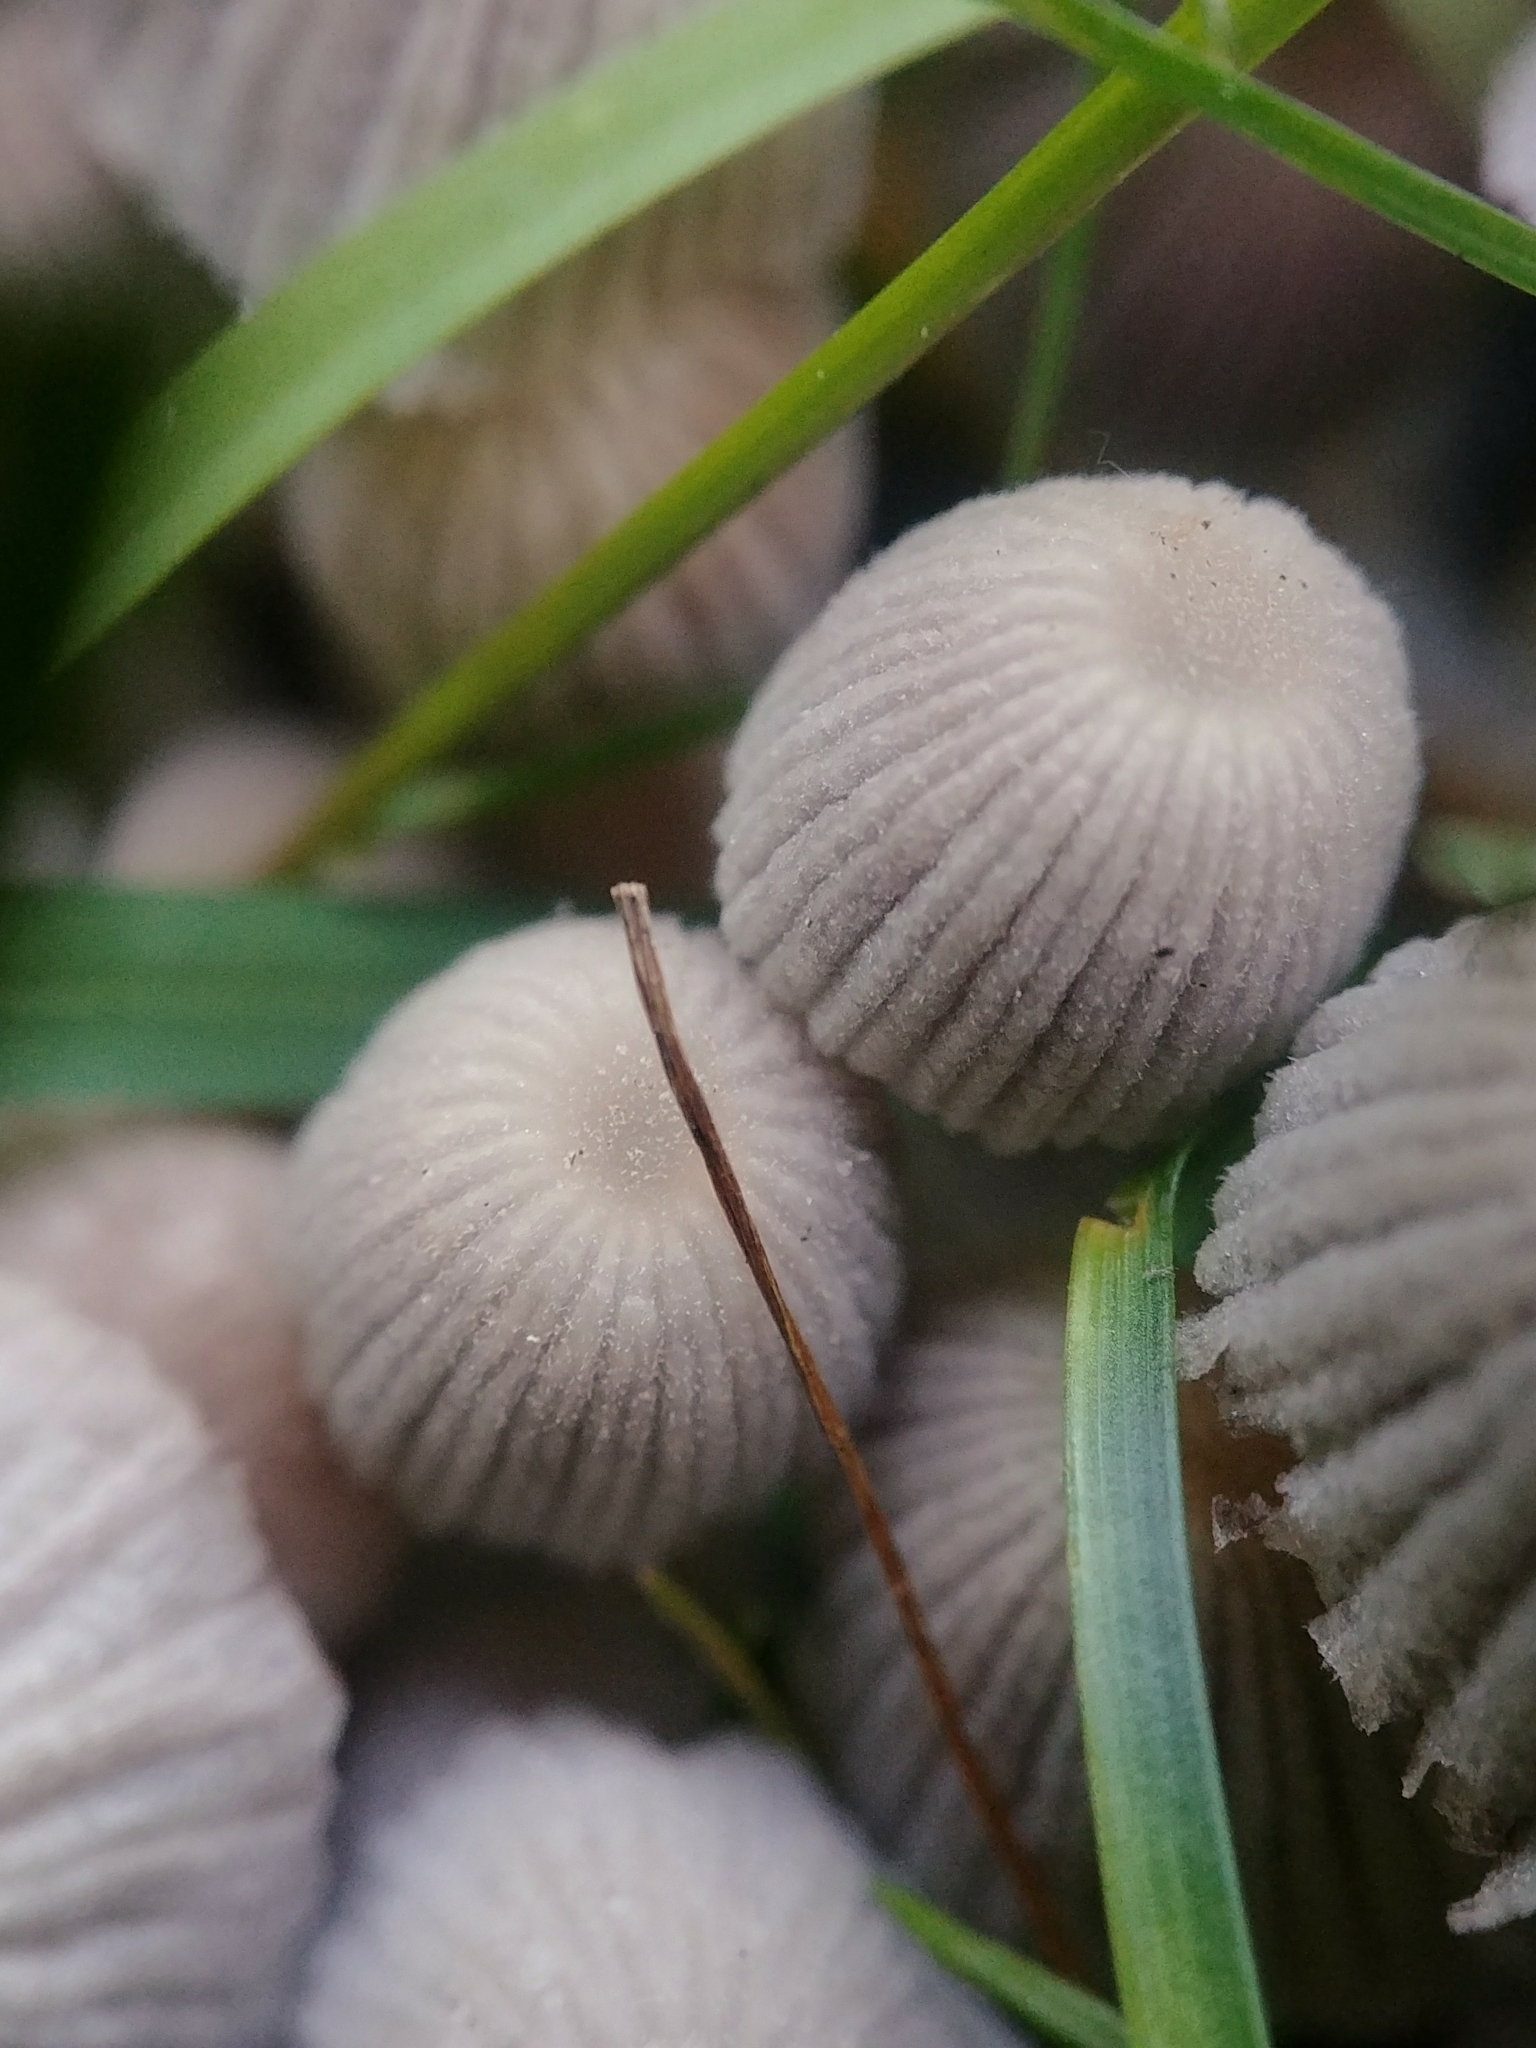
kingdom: Fungi
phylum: Basidiomycota
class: Agaricomycetes
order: Agaricales
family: Psathyrellaceae
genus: Coprinellus
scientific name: Coprinellus disseminatus
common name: Fairies' bonnets
